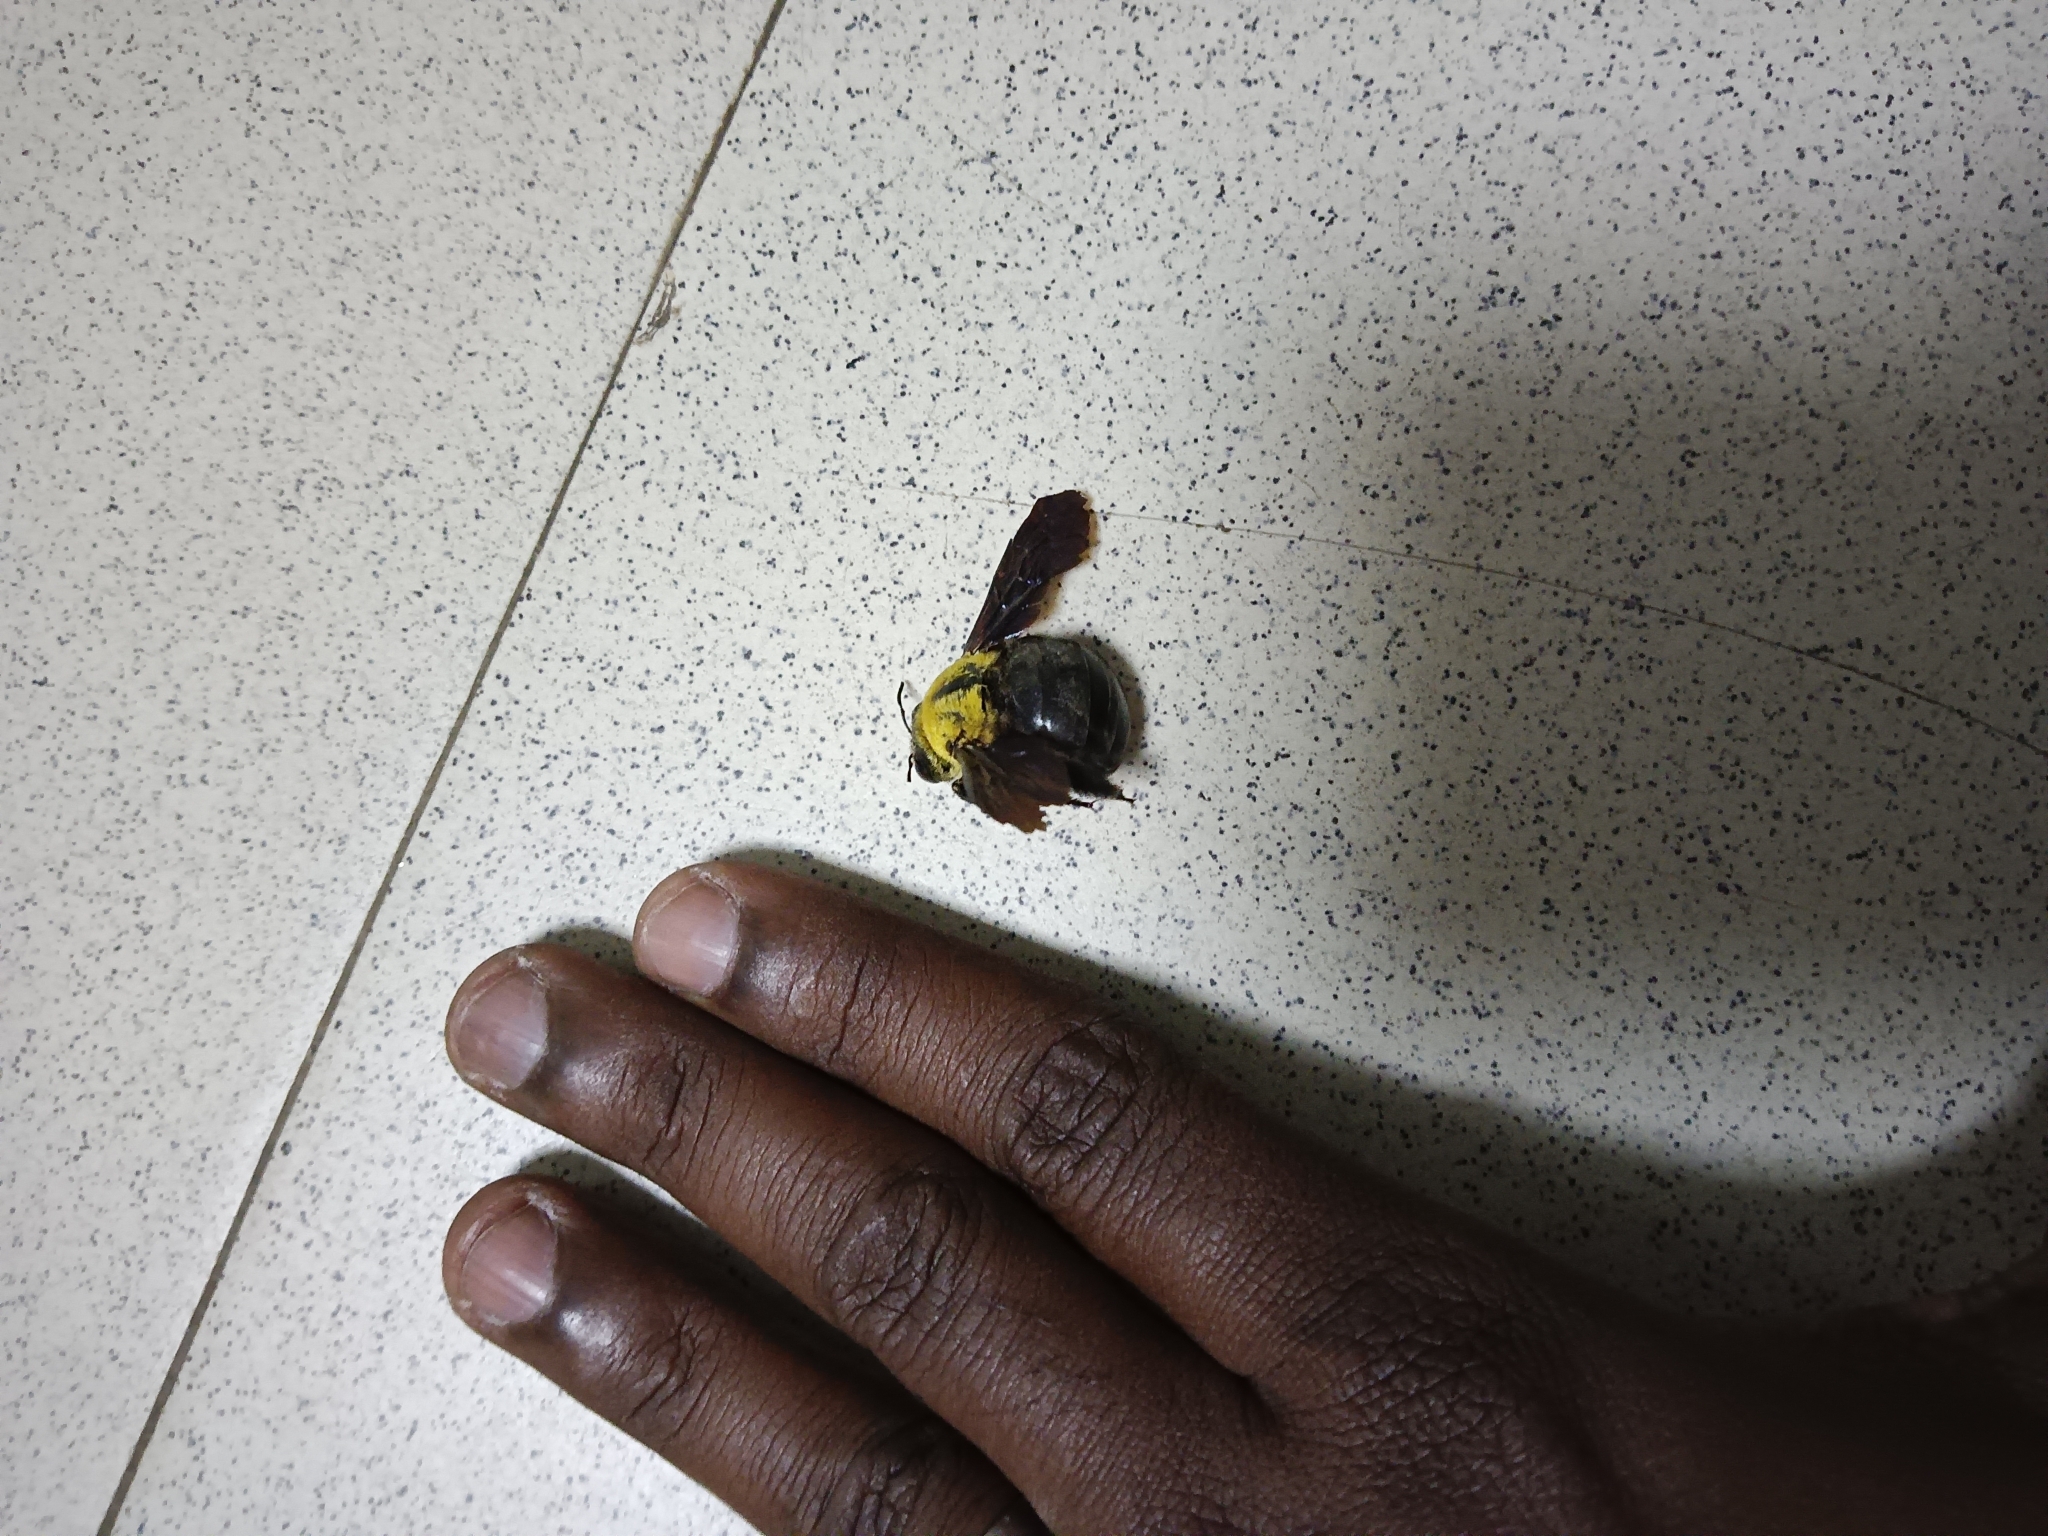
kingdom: Animalia
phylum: Arthropoda
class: Insecta
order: Hymenoptera
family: Apidae
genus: Xylocopa
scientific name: Xylocopa ruficornis
